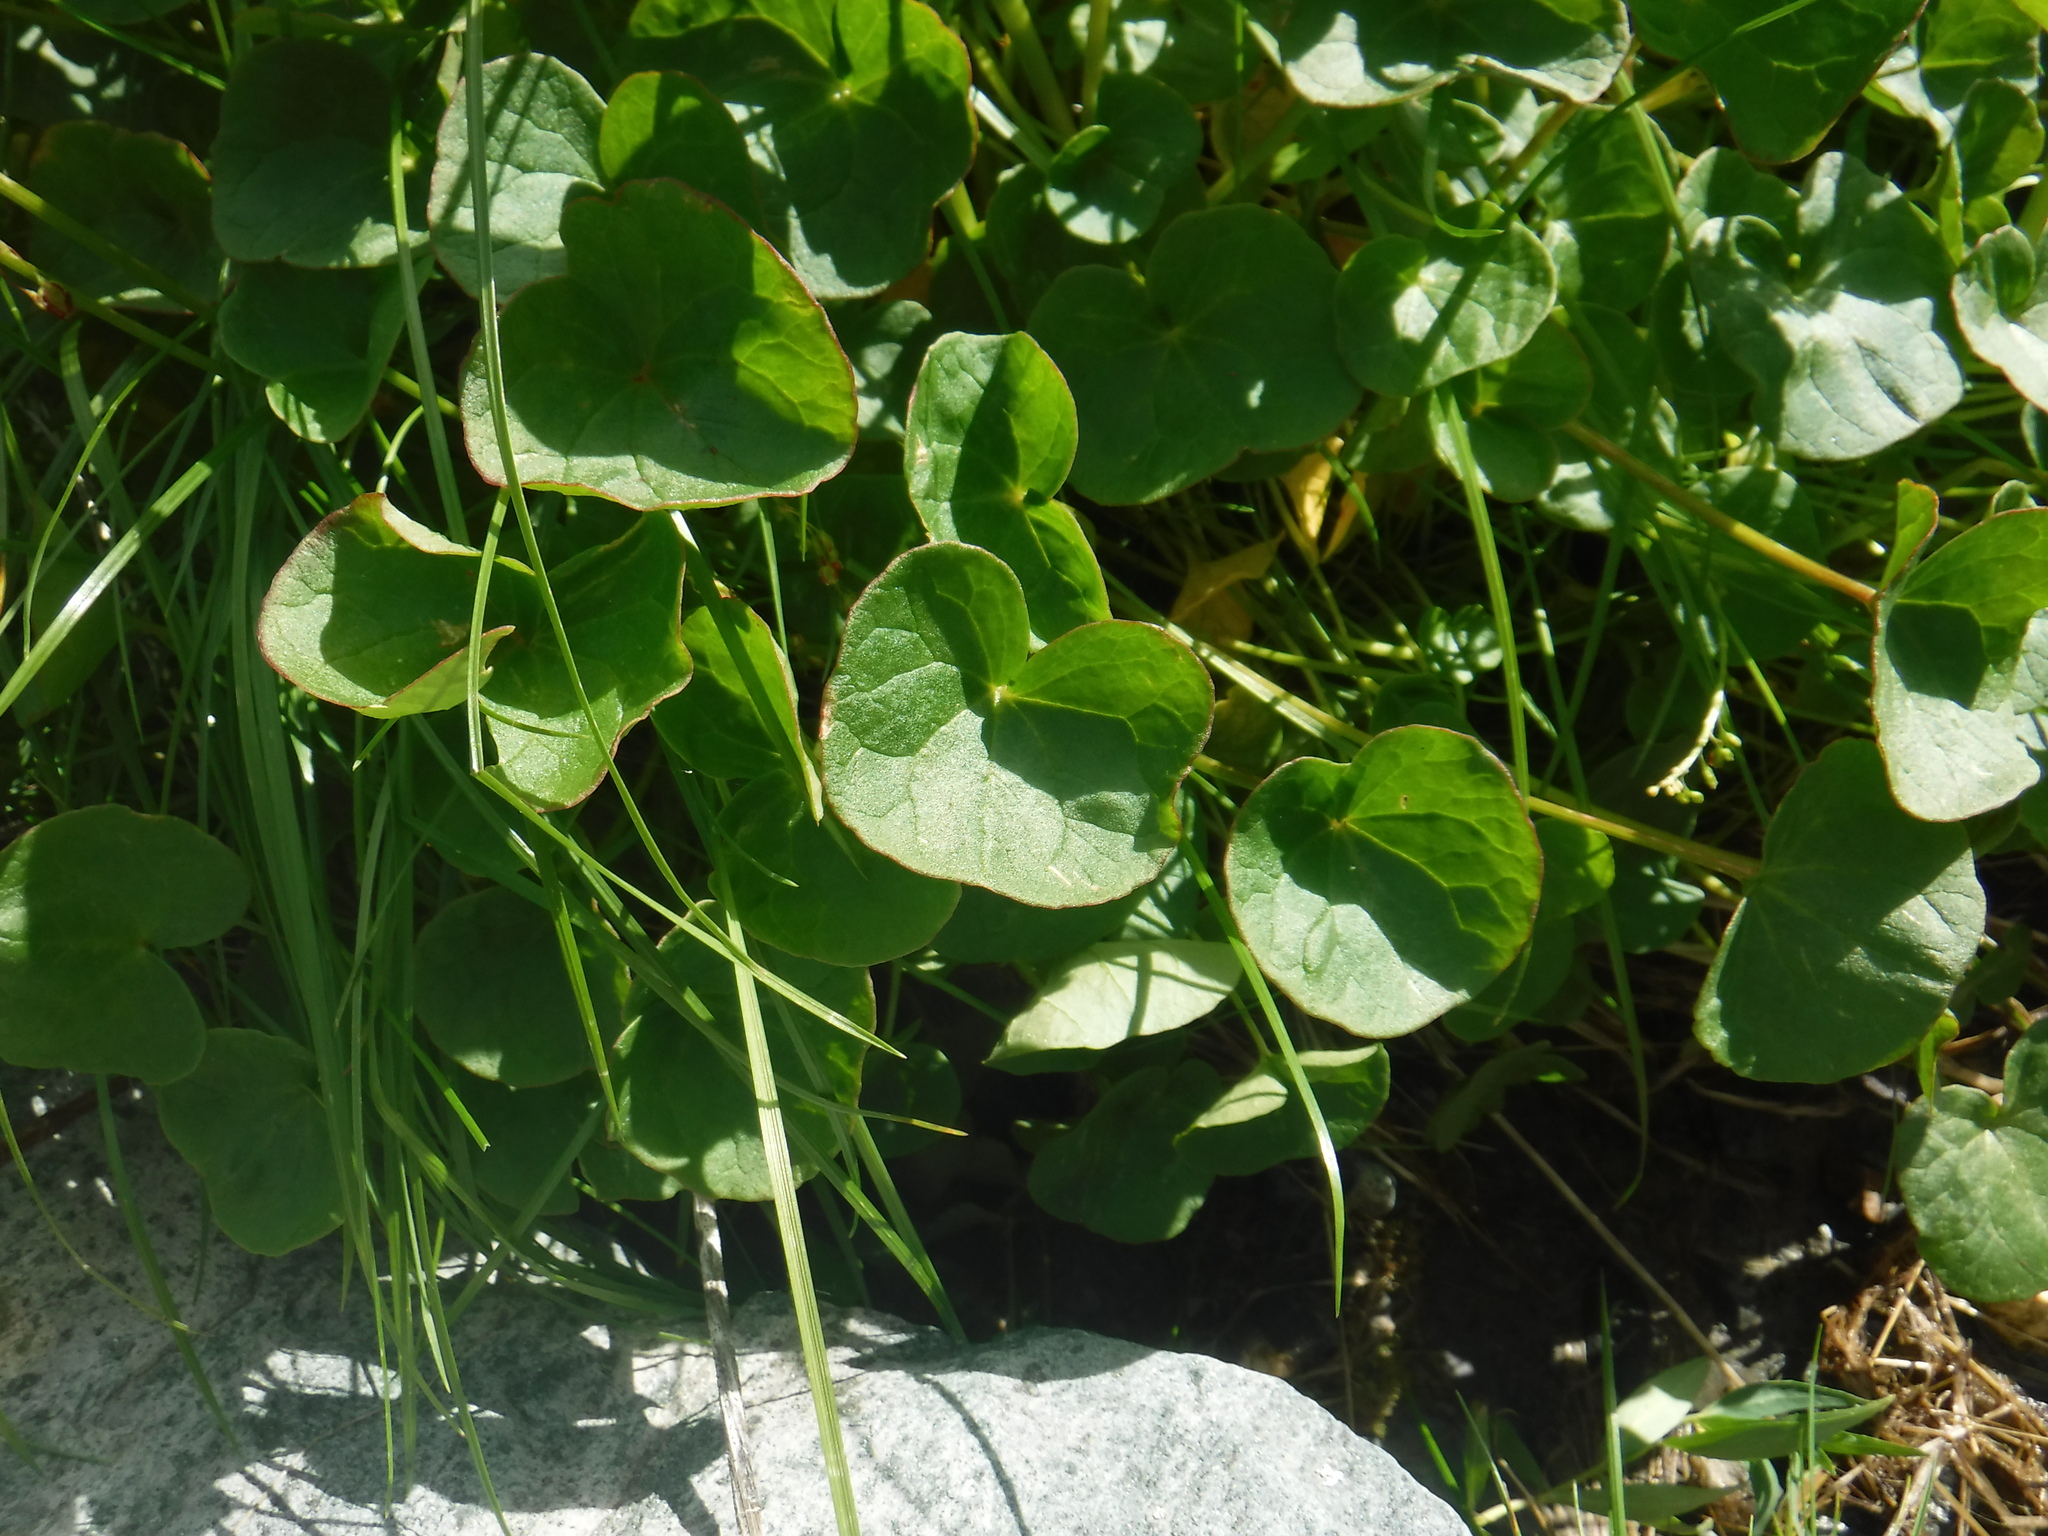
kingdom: Plantae
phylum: Tracheophyta
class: Magnoliopsida
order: Caryophyllales
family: Polygonaceae
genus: Oxyria
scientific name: Oxyria digyna
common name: Alpine mountain-sorrel
